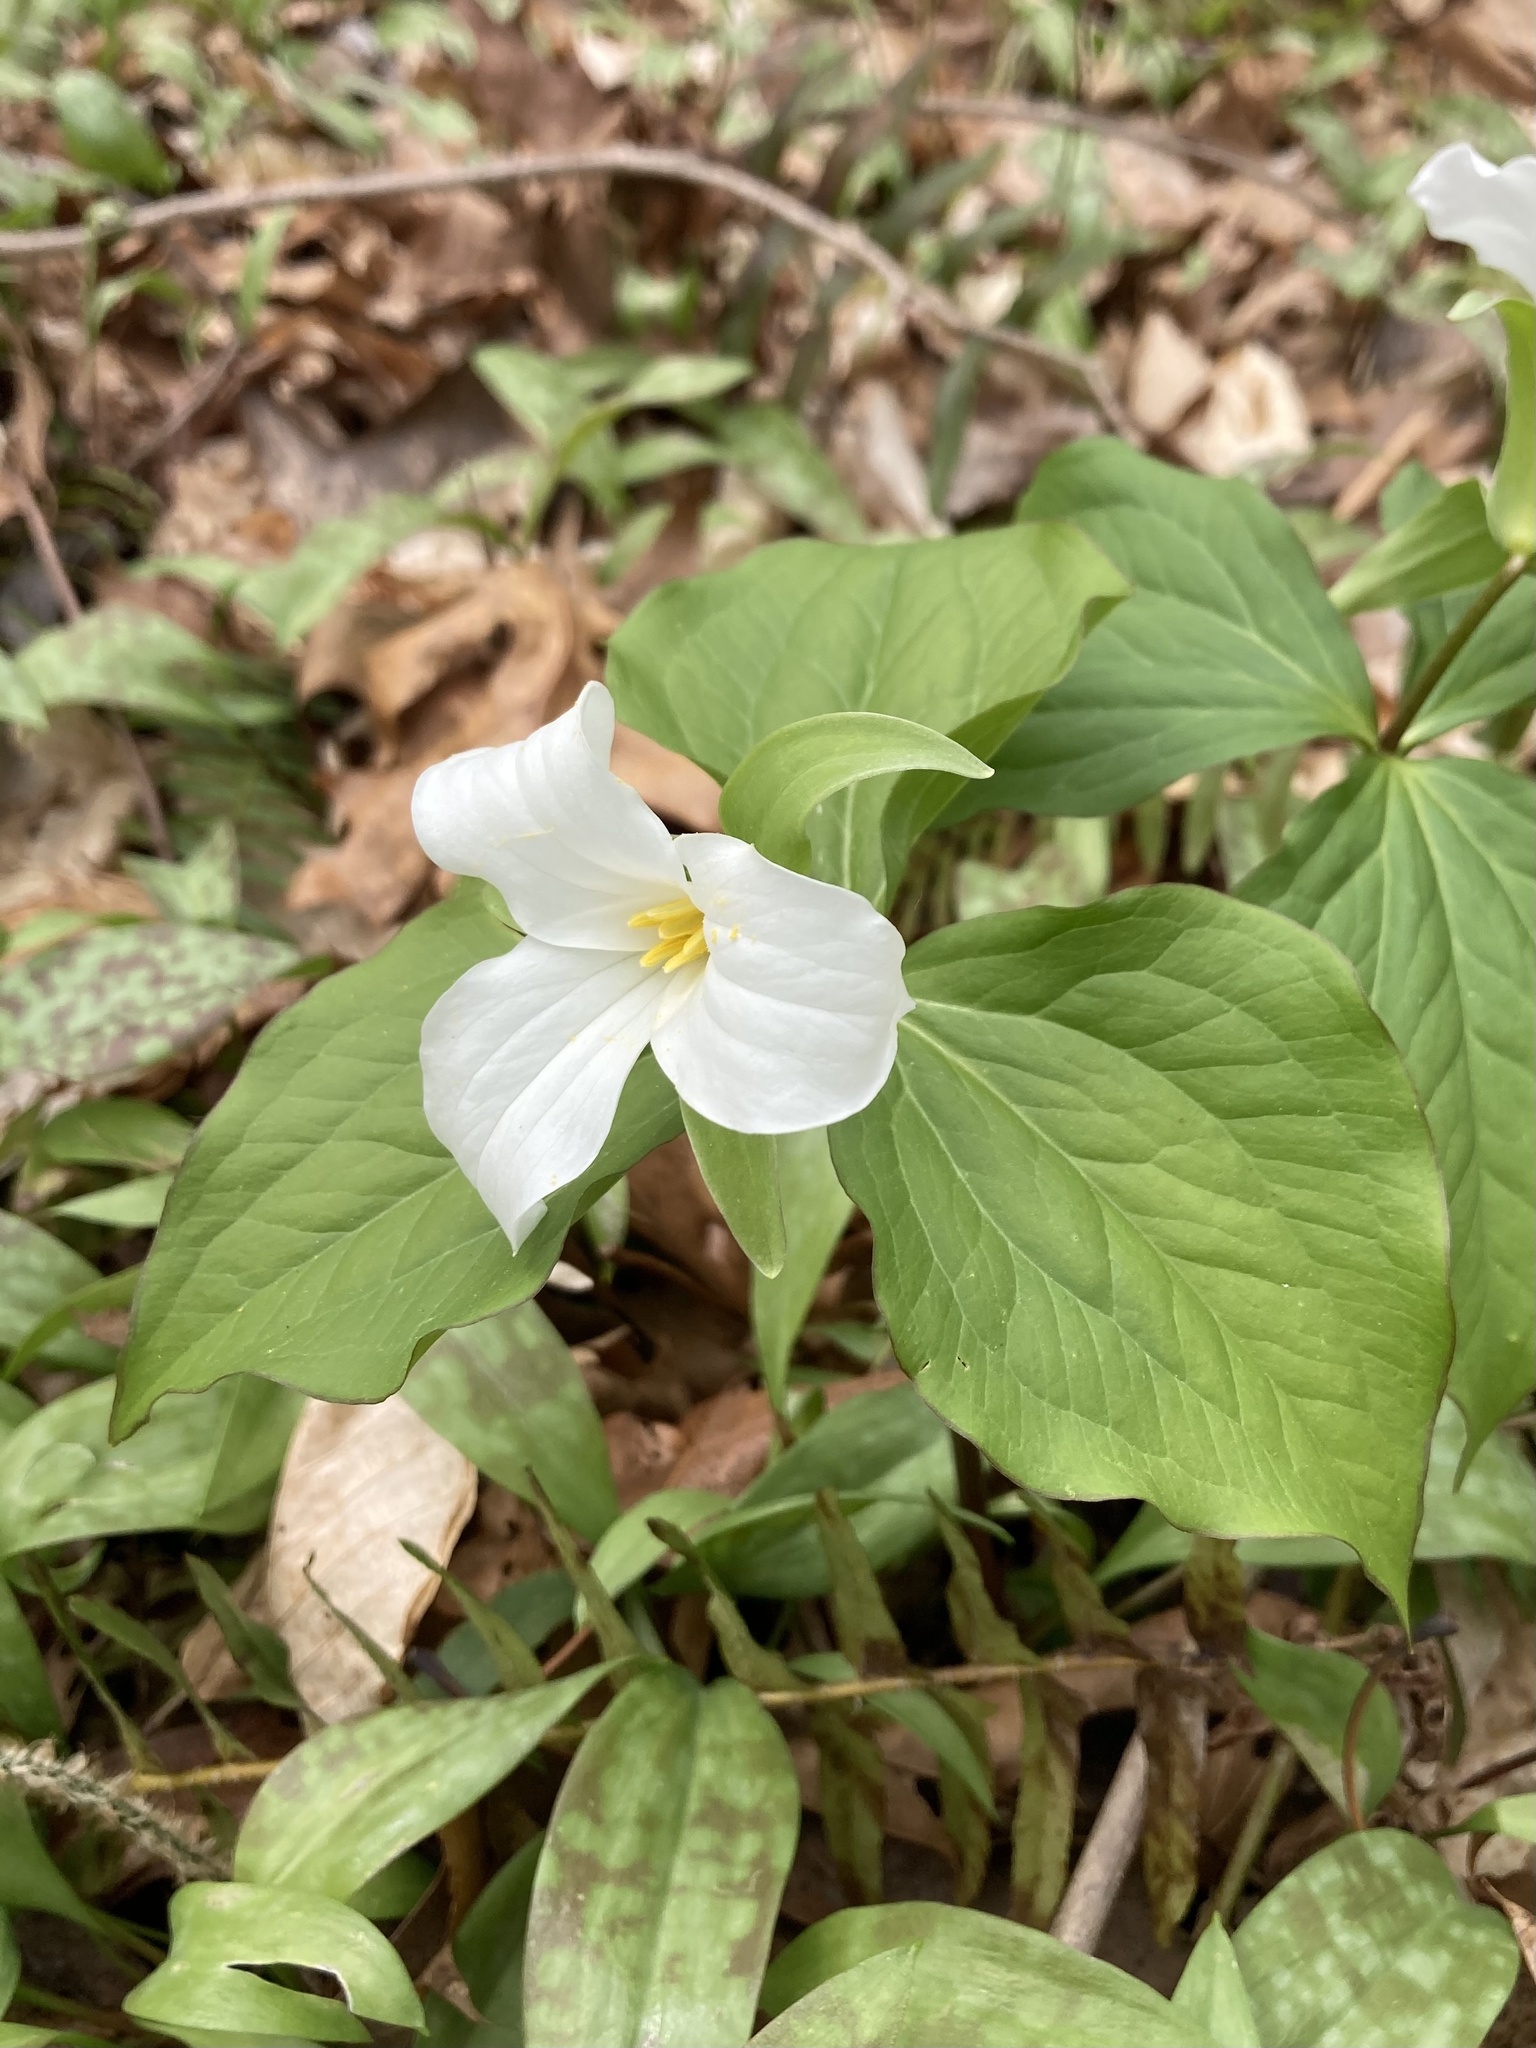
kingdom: Plantae
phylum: Tracheophyta
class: Liliopsida
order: Liliales
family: Melanthiaceae
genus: Trillium
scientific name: Trillium grandiflorum
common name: Great white trillium
